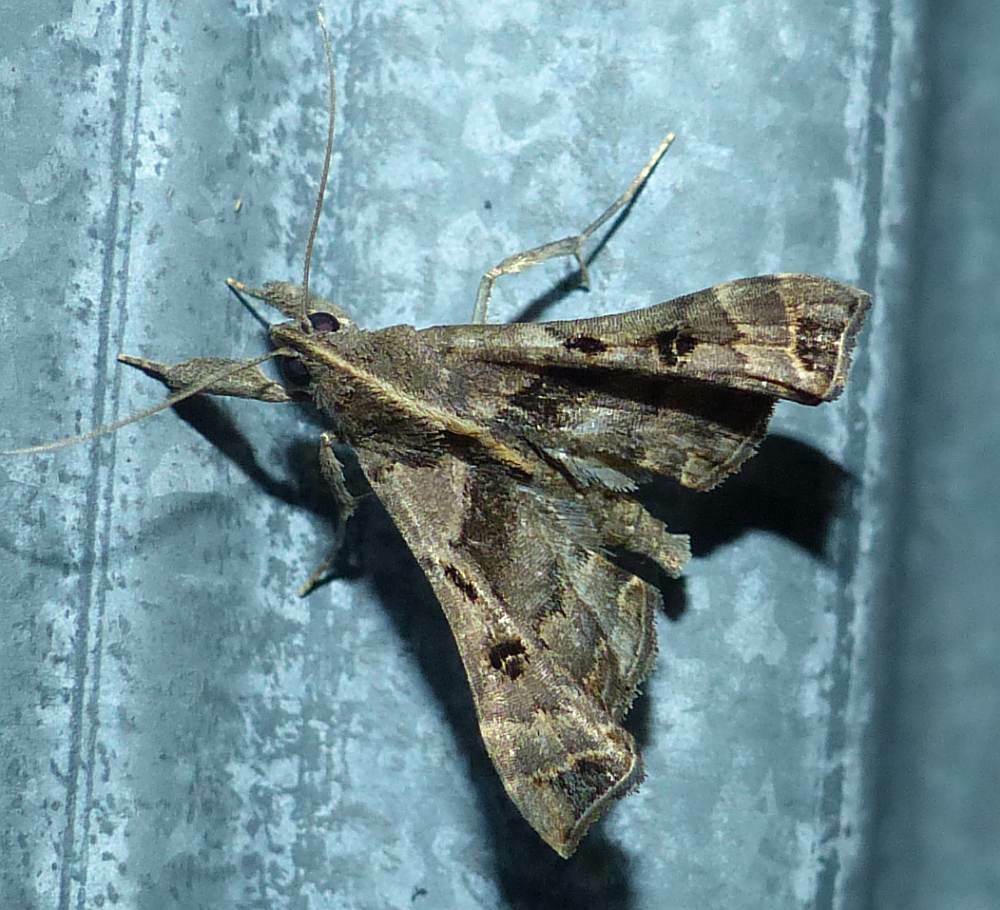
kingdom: Animalia
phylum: Arthropoda
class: Insecta
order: Lepidoptera
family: Erebidae
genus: Palthis
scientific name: Palthis asopialis
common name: Faint-spotted palthis moth
